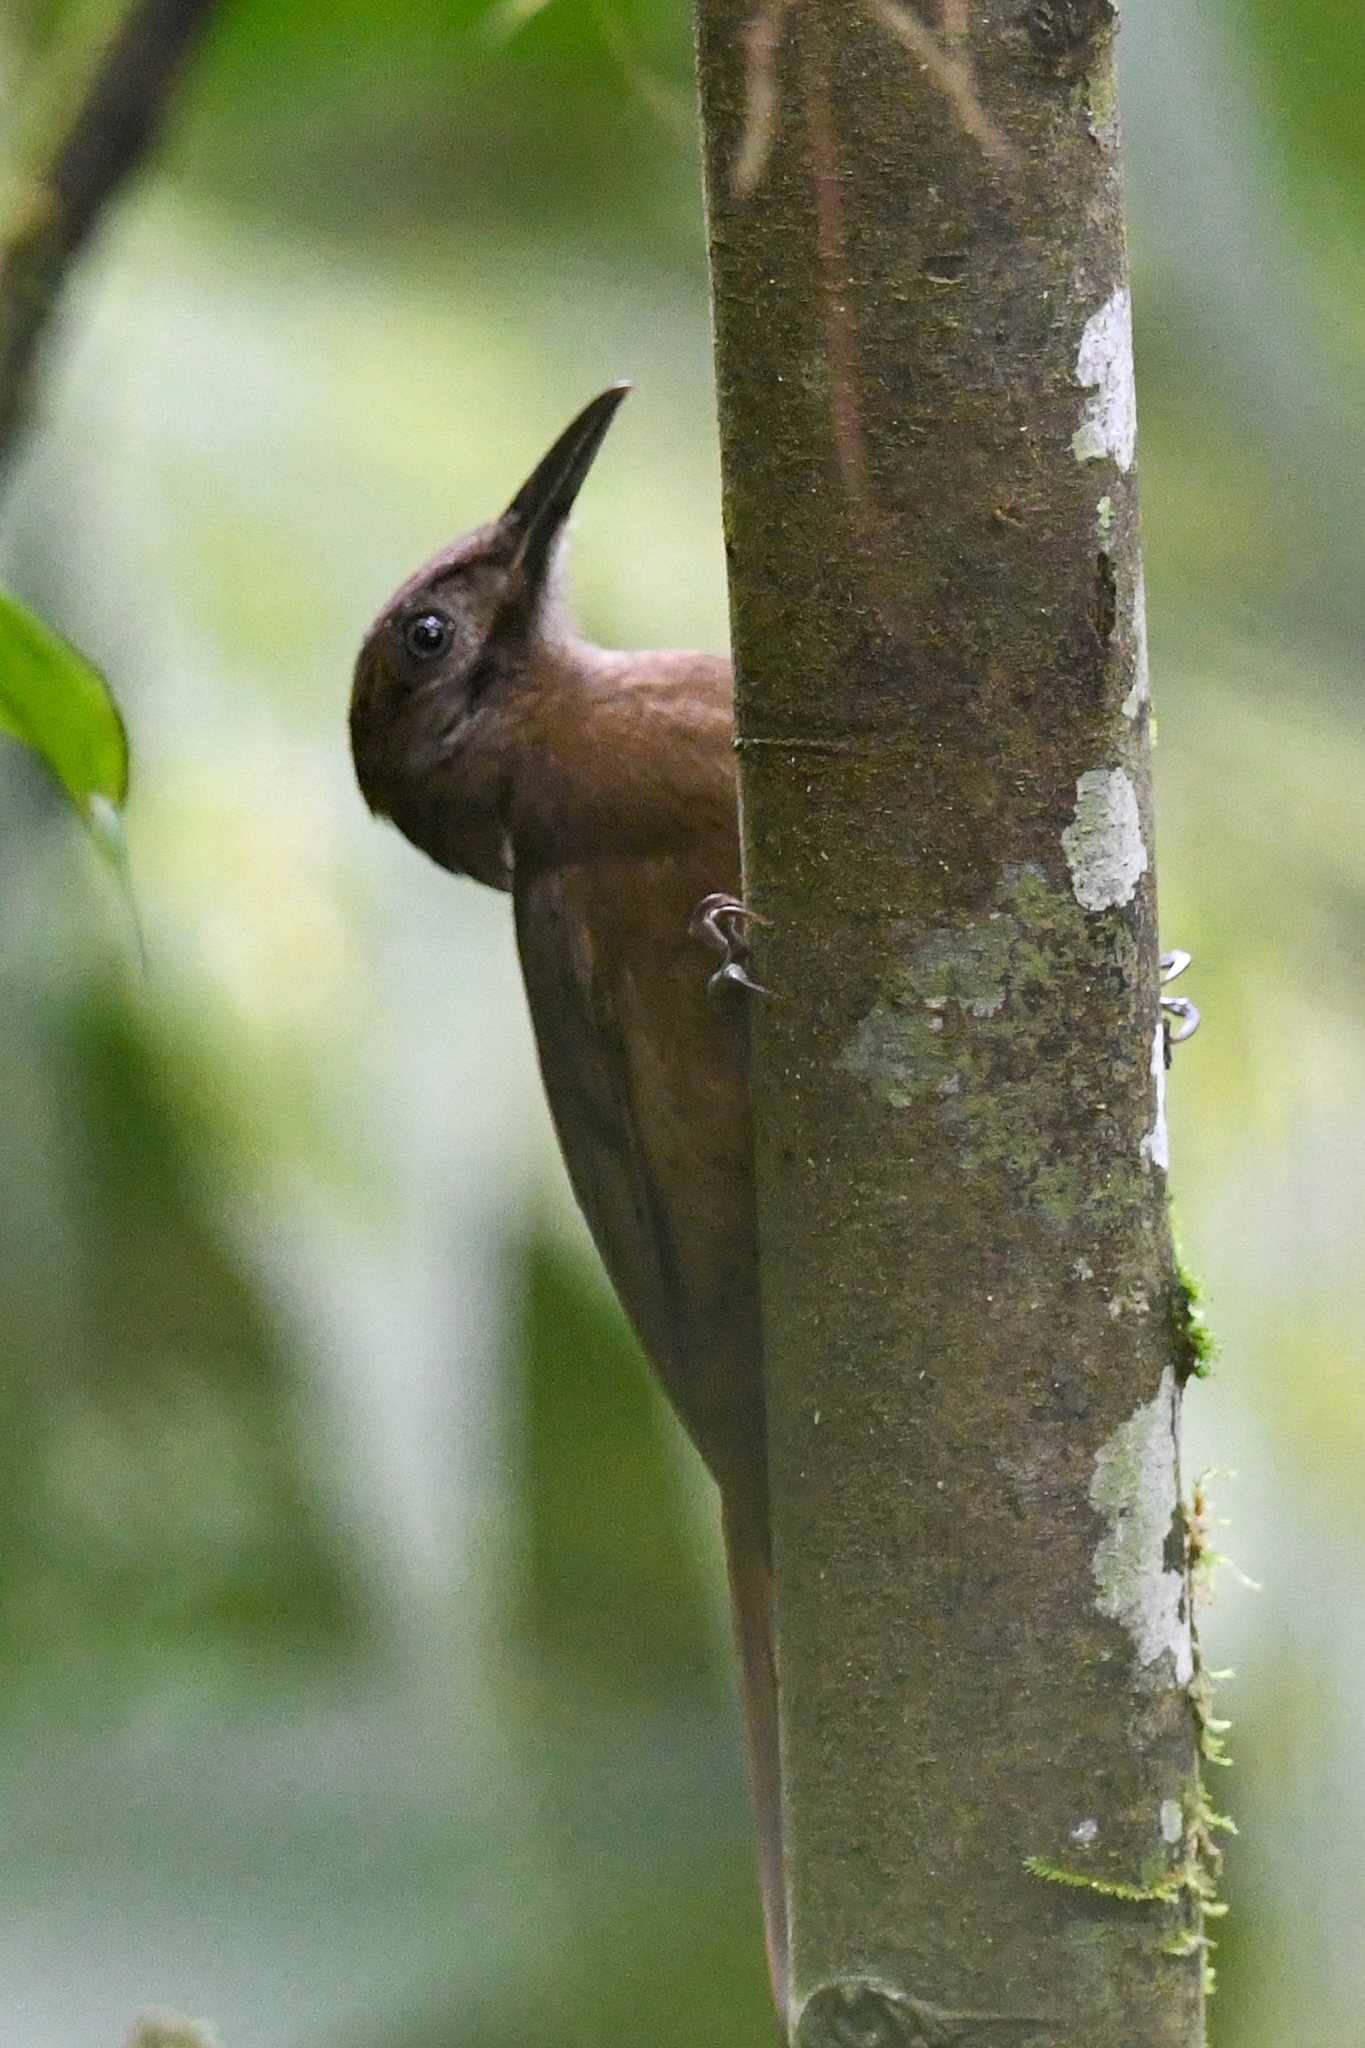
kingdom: Animalia
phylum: Chordata
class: Aves
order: Passeriformes
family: Furnariidae
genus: Dendrocincla
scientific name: Dendrocincla fuliginosa
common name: Plain-brown woodcreeper
